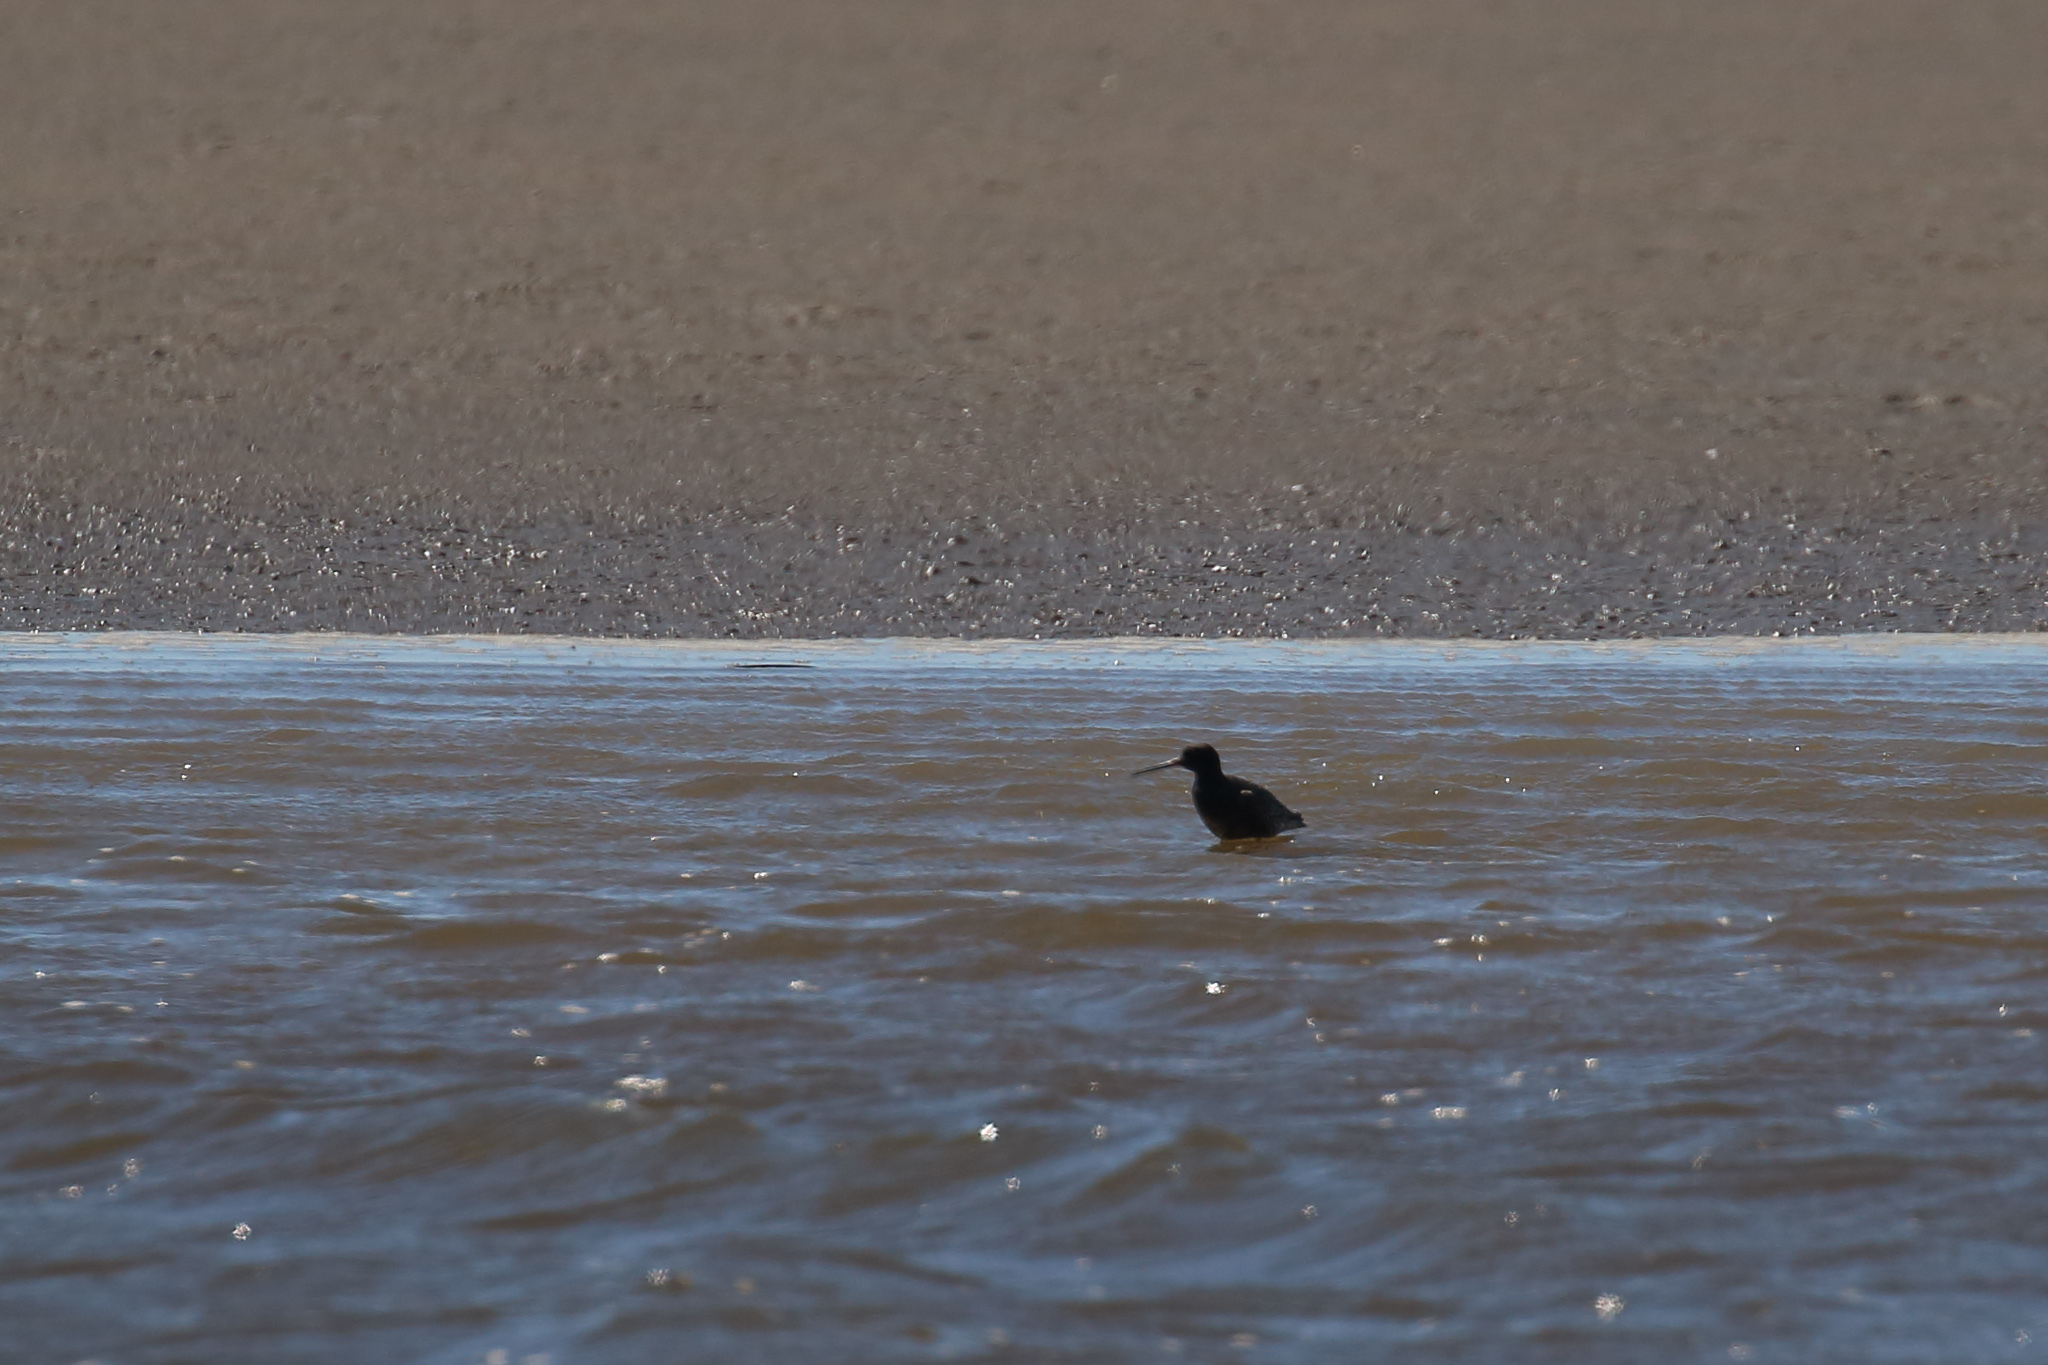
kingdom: Animalia
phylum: Chordata
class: Aves
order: Charadriiformes
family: Scolopacidae
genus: Tringa
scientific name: Tringa erythropus
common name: Spotted redshank
